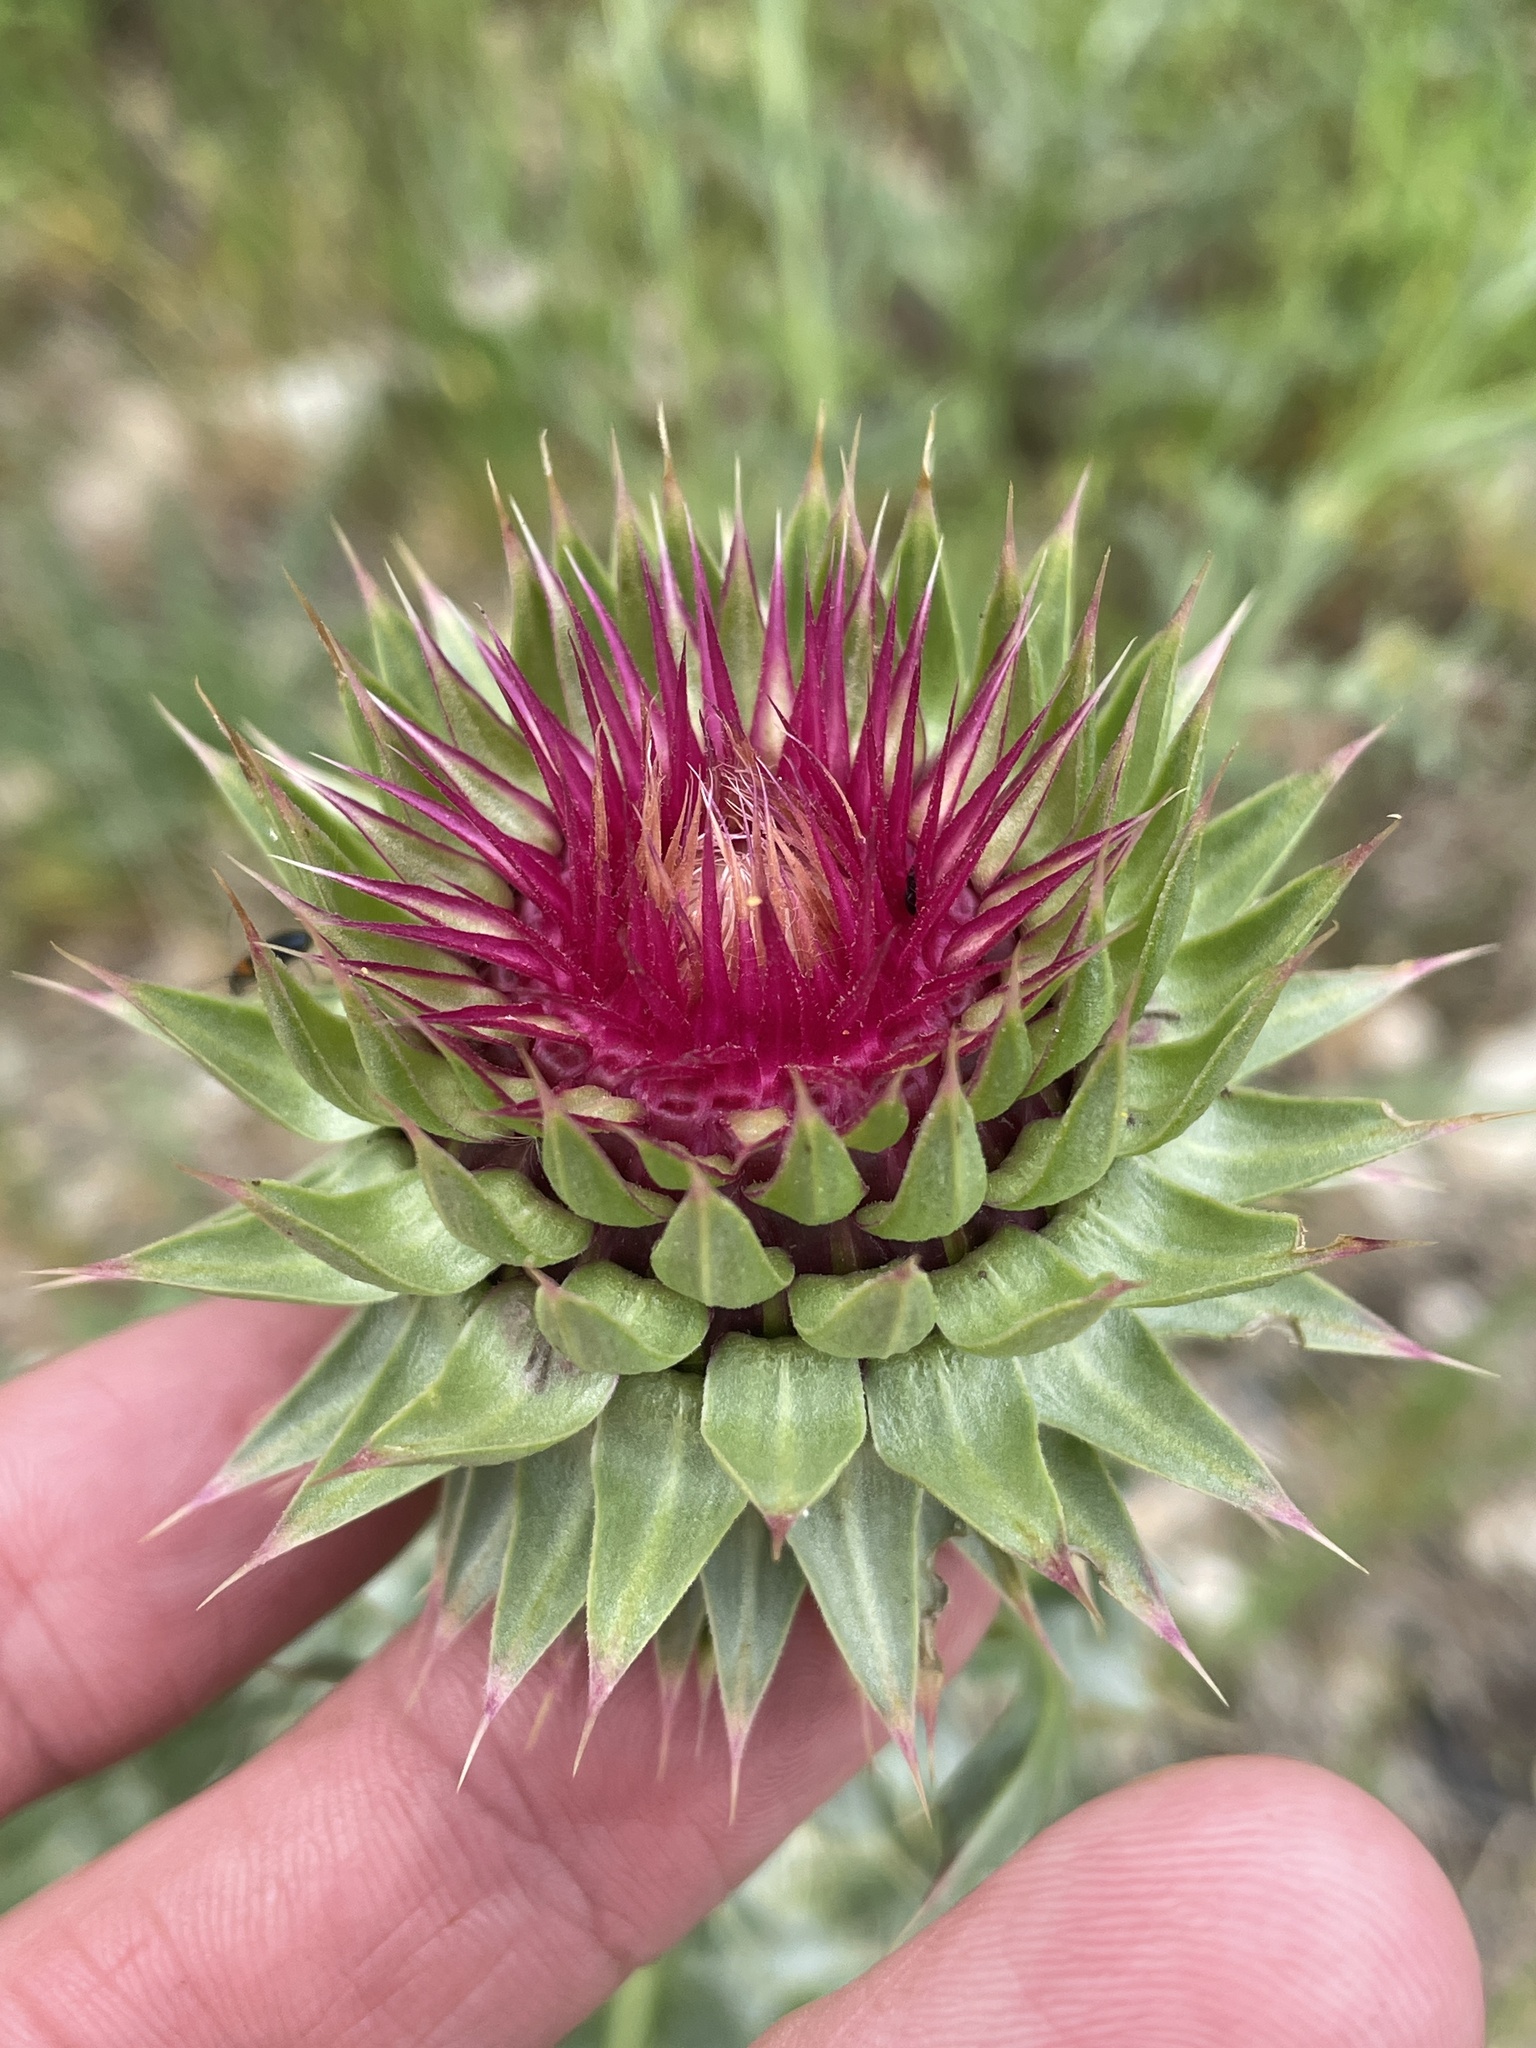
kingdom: Plantae
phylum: Tracheophyta
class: Magnoliopsida
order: Asterales
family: Asteraceae
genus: Carduus
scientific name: Carduus nutans
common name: Musk thistle
